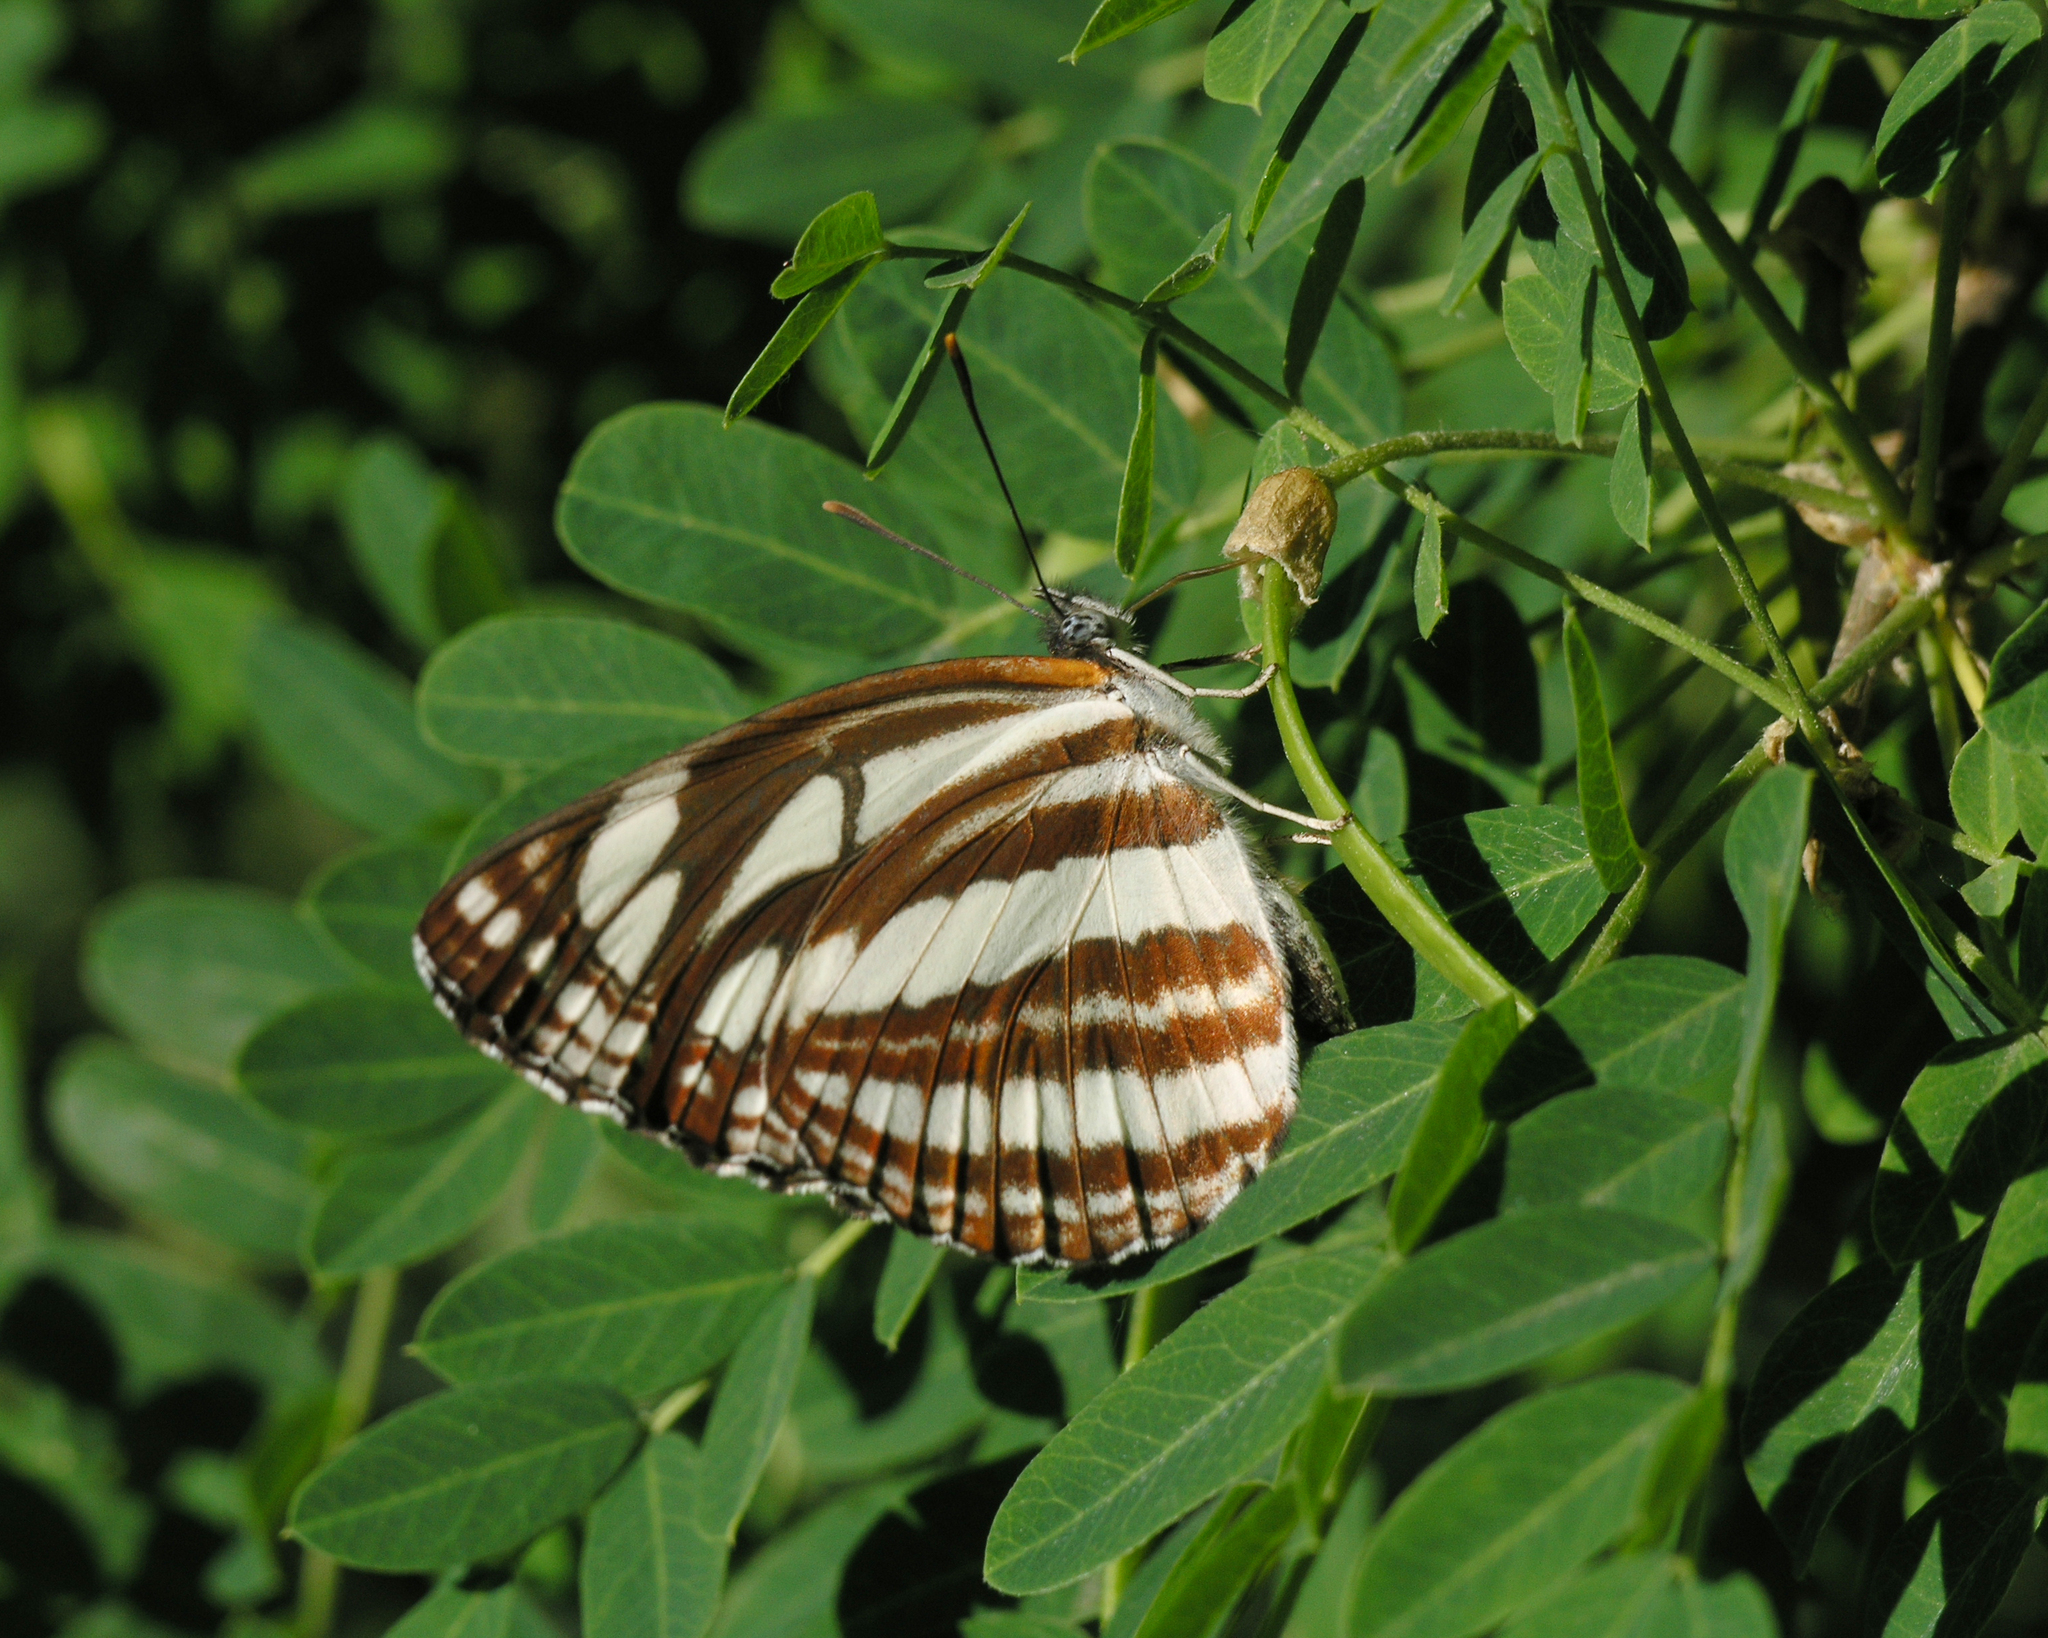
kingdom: Plantae
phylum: Tracheophyta
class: Magnoliopsida
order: Fabales
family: Fabaceae
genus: Caragana
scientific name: Caragana arborescens
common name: Siberian peashrub
